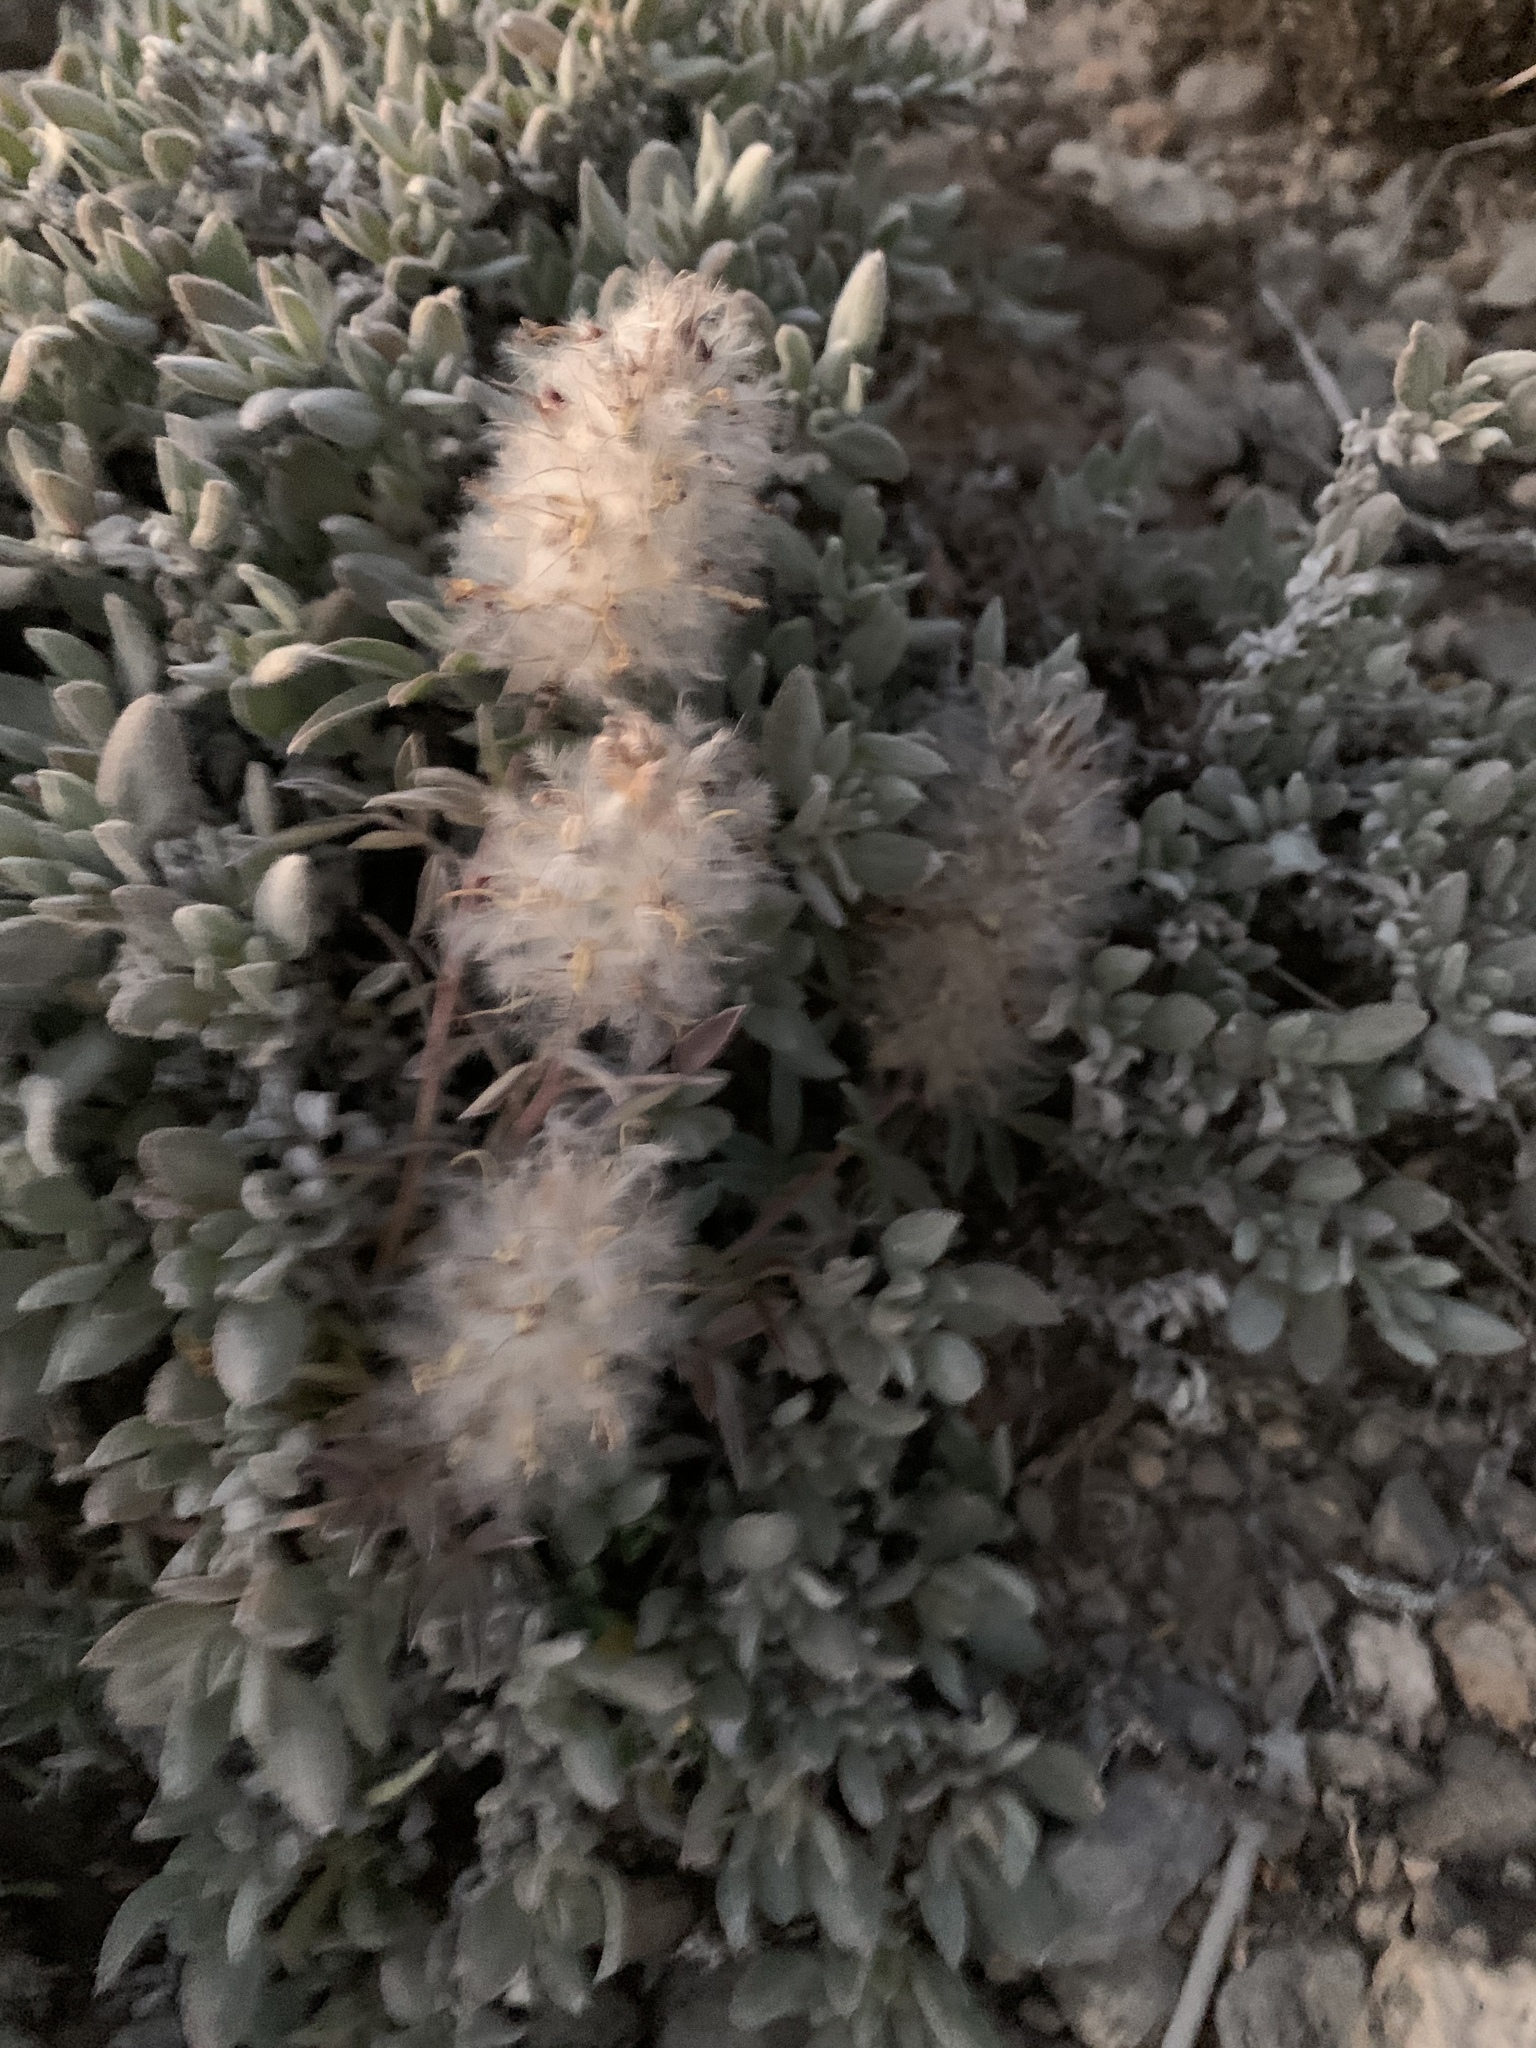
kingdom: Plantae
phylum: Tracheophyta
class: Magnoliopsida
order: Boraginales
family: Ehretiaceae
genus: Tiquilia
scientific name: Tiquilia canescens
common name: Hairy tiquilia
